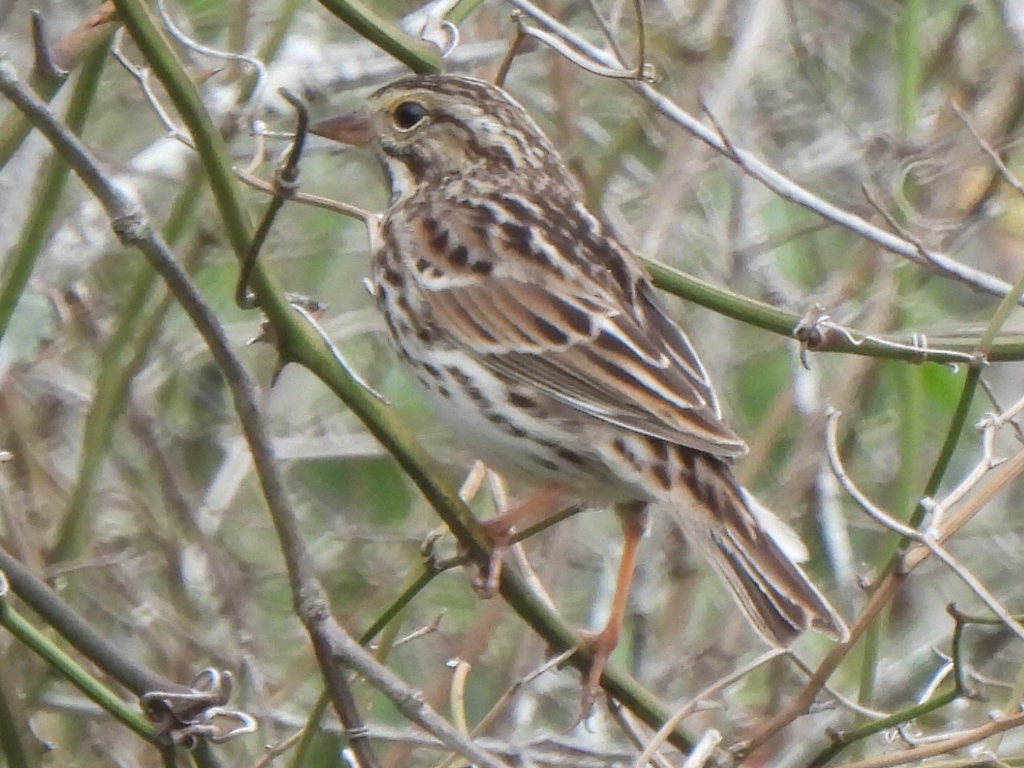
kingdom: Animalia
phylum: Chordata
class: Aves
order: Passeriformes
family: Passerellidae
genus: Passerculus
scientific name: Passerculus sandwichensis
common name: Savannah sparrow
